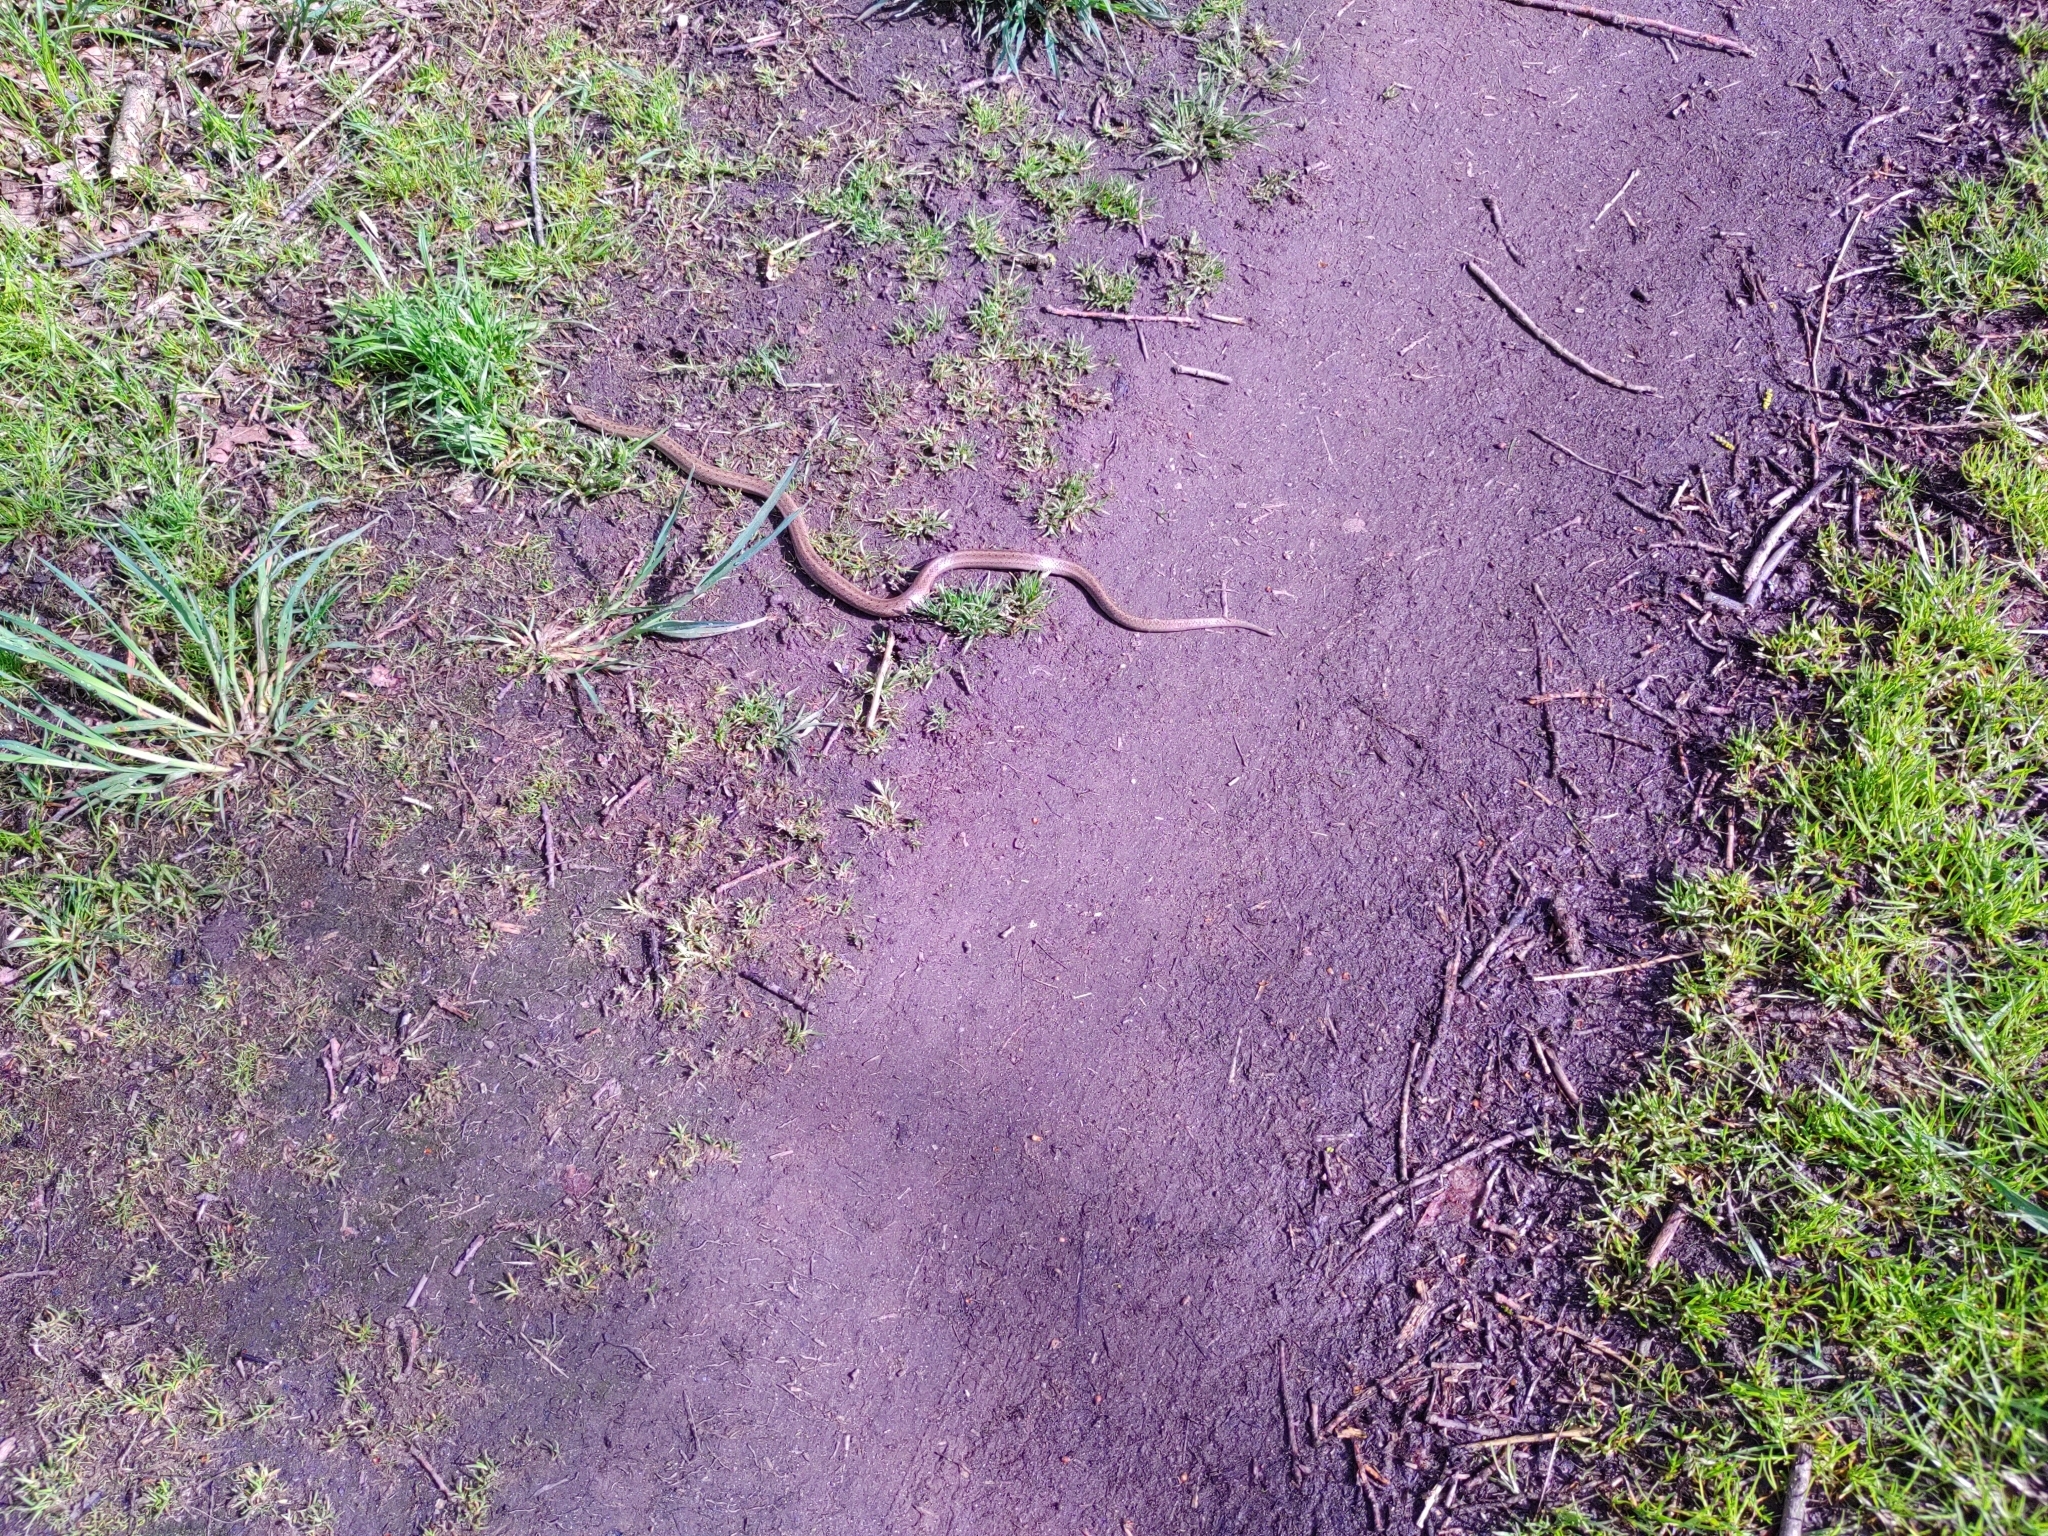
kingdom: Animalia
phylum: Chordata
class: Squamata
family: Colubridae
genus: Coronella
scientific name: Coronella austriaca
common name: Smooth snake
